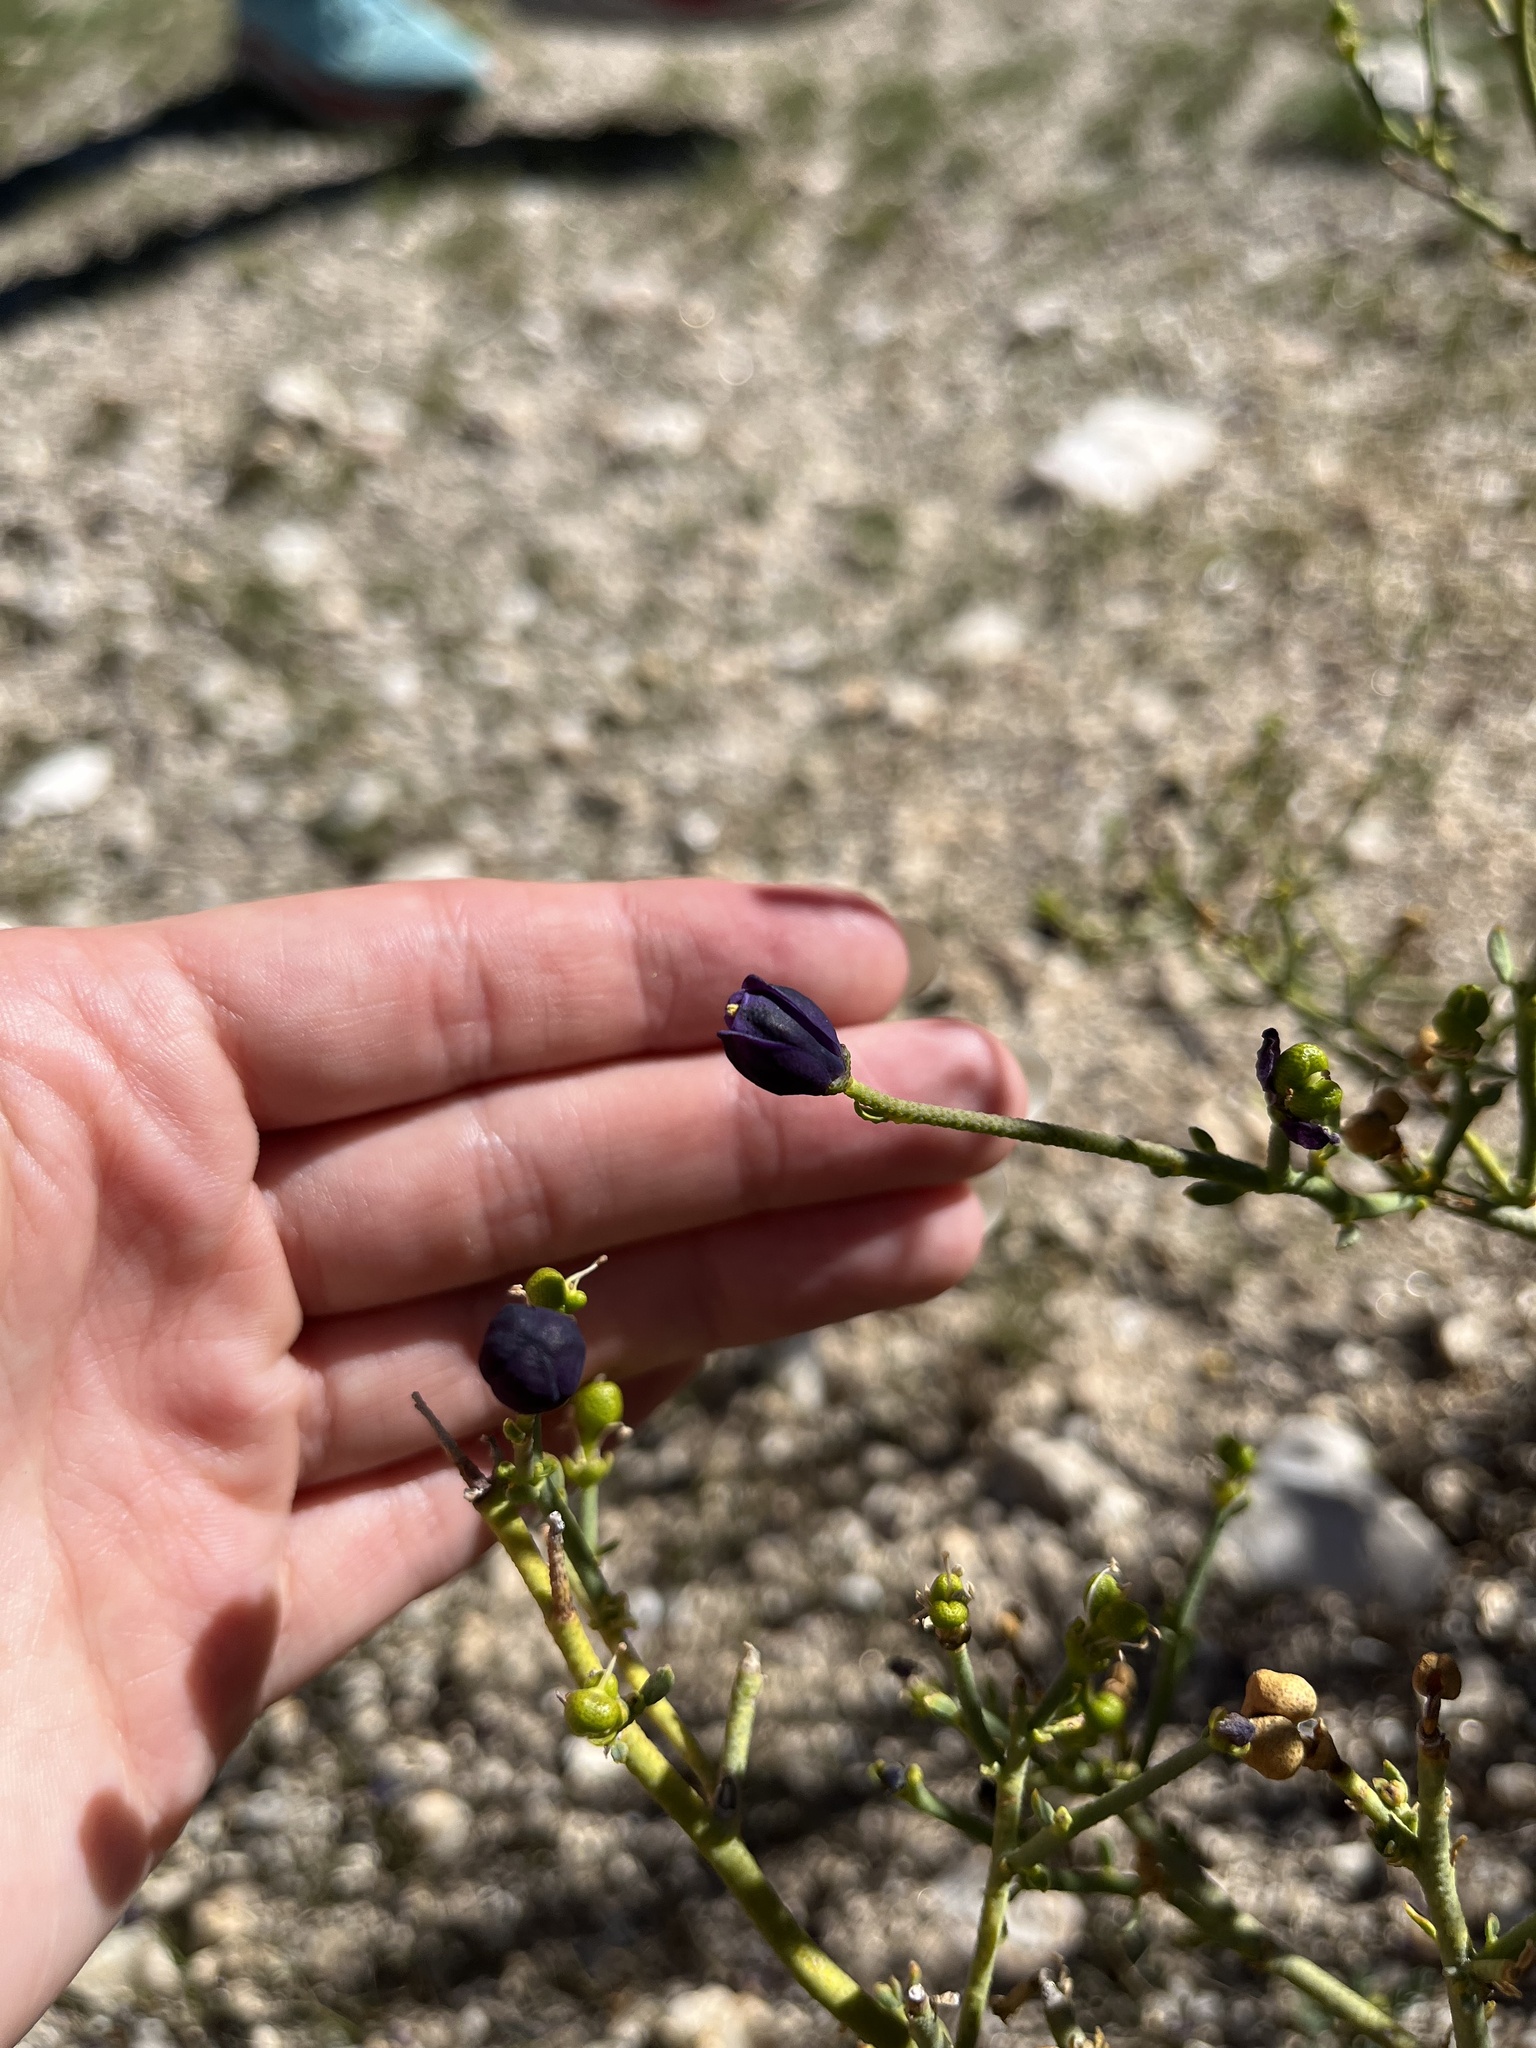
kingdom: Plantae
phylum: Tracheophyta
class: Magnoliopsida
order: Sapindales
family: Rutaceae
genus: Thamnosma
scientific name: Thamnosma montana
